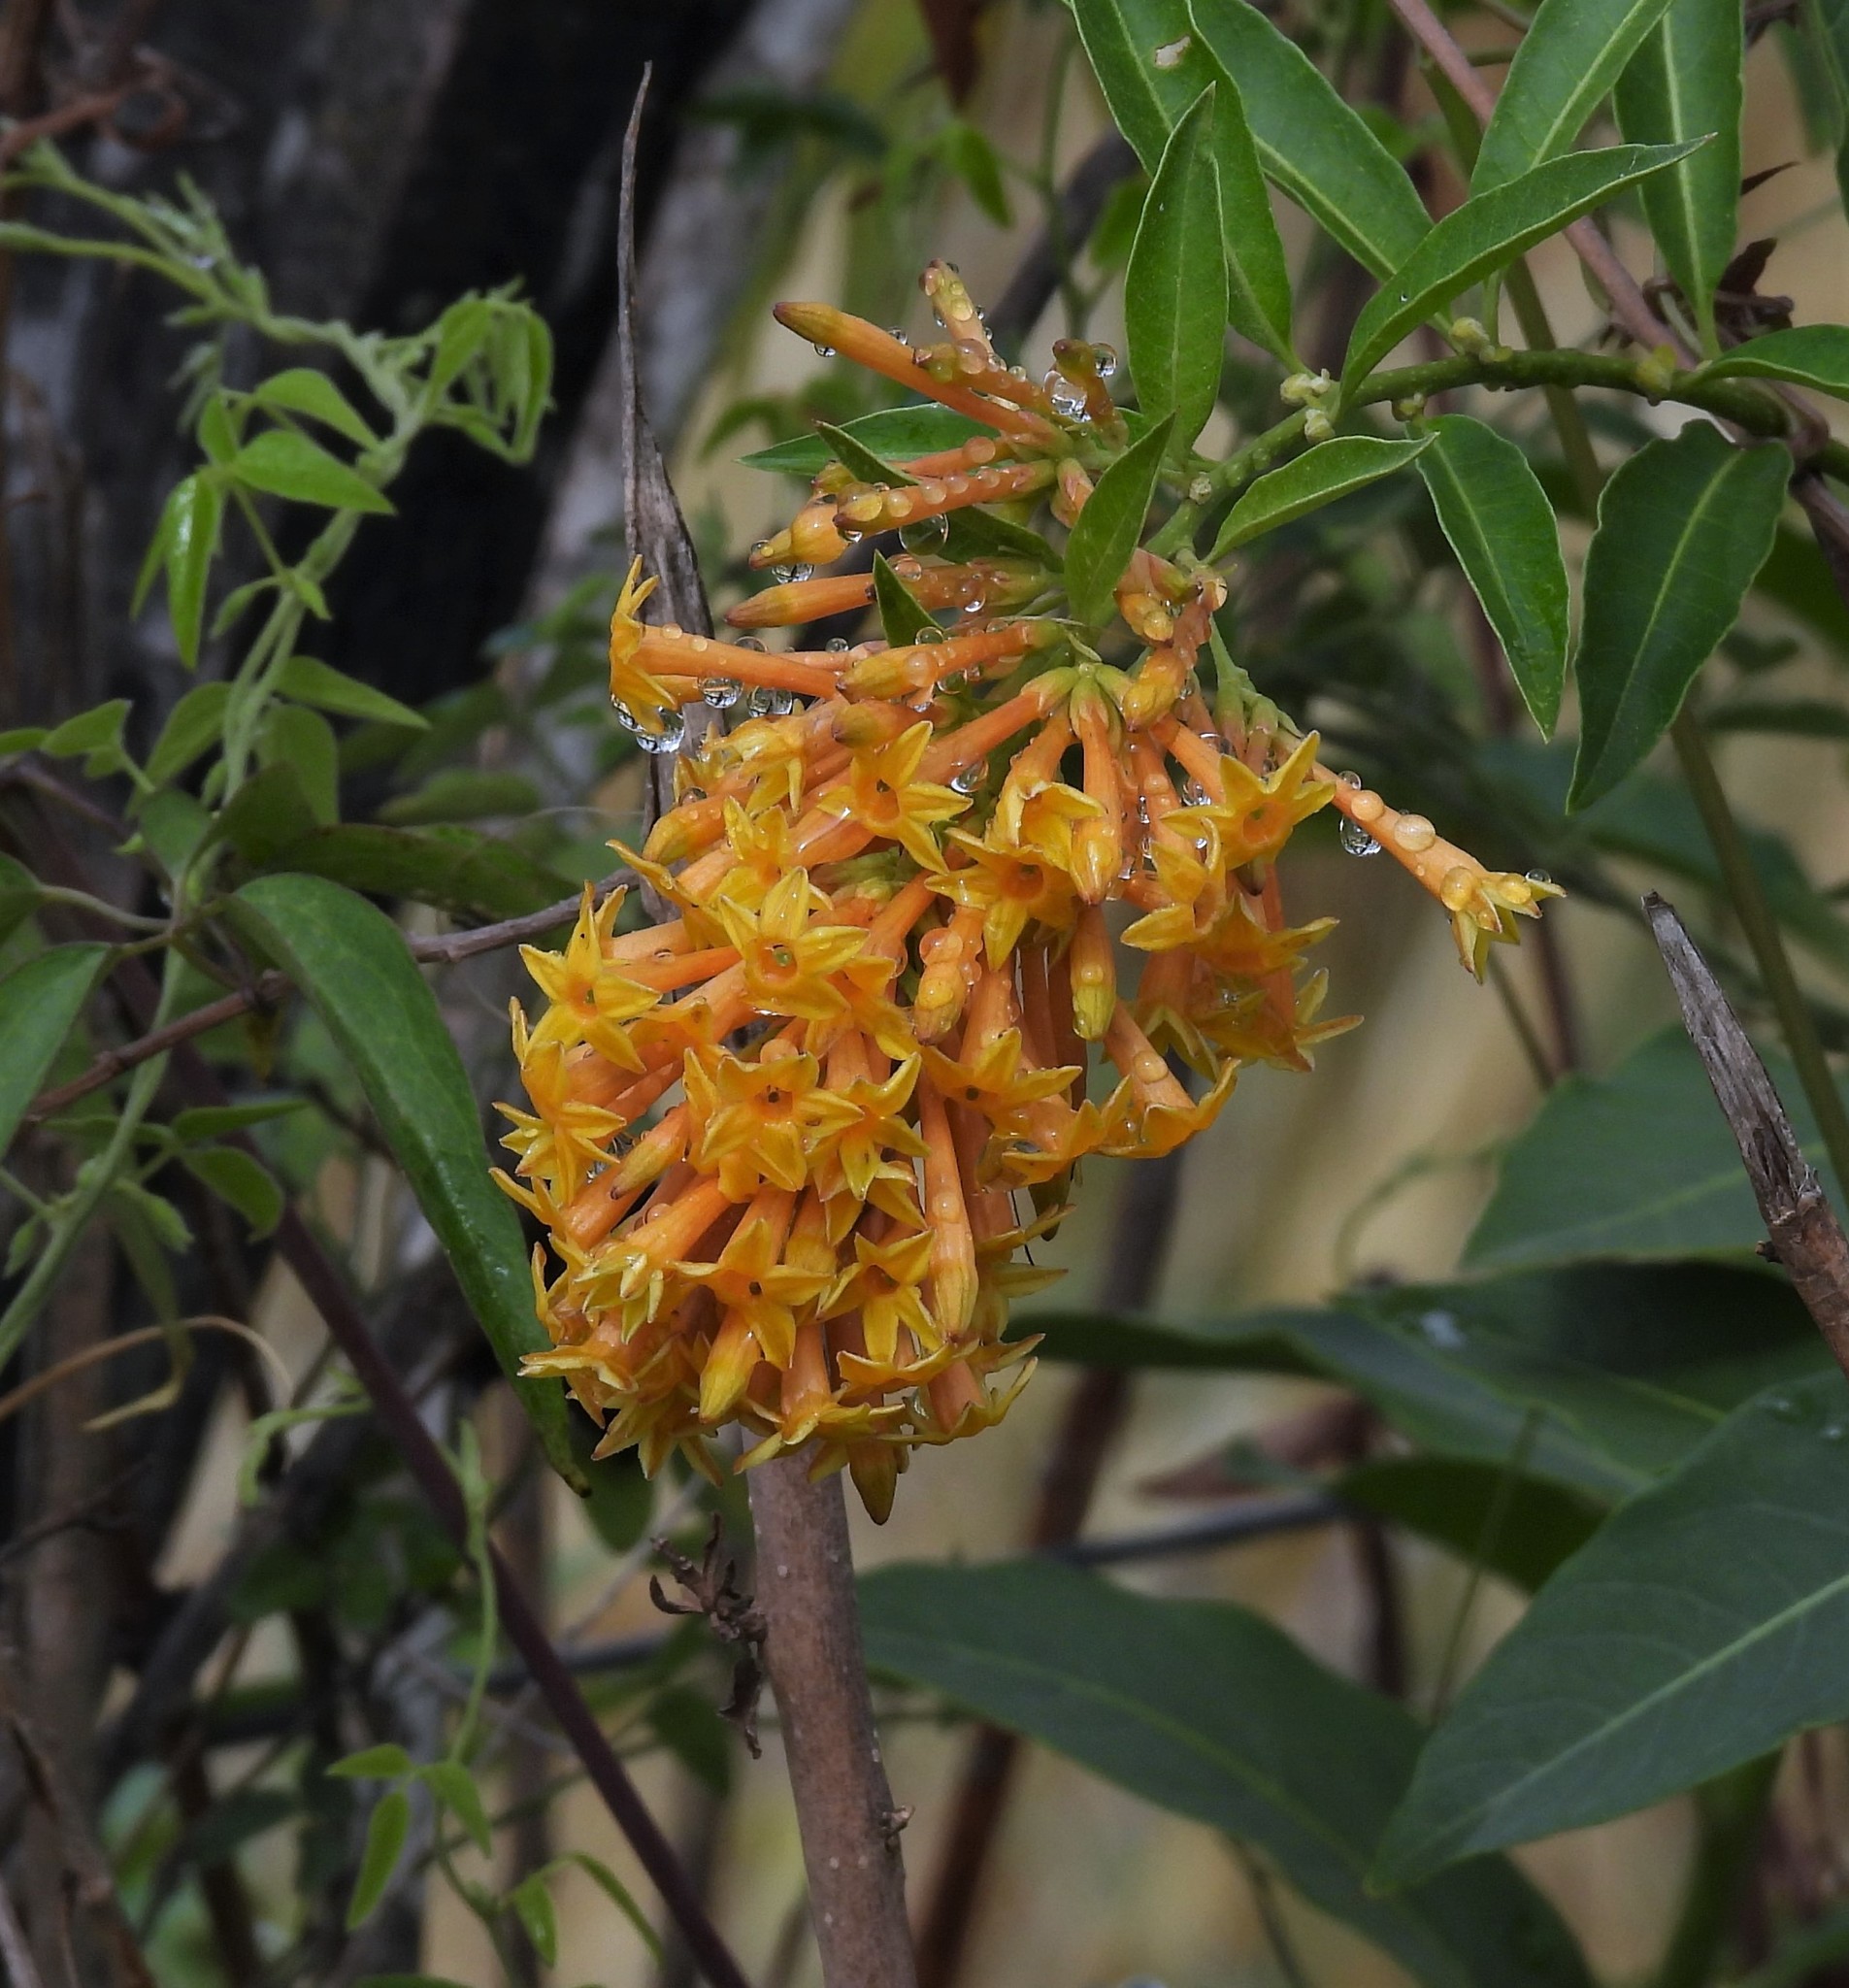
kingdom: Plantae
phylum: Tracheophyta
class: Magnoliopsida
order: Solanales
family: Solanaceae
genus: Cestrum
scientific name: Cestrum parqui
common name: Chilean cestrum
